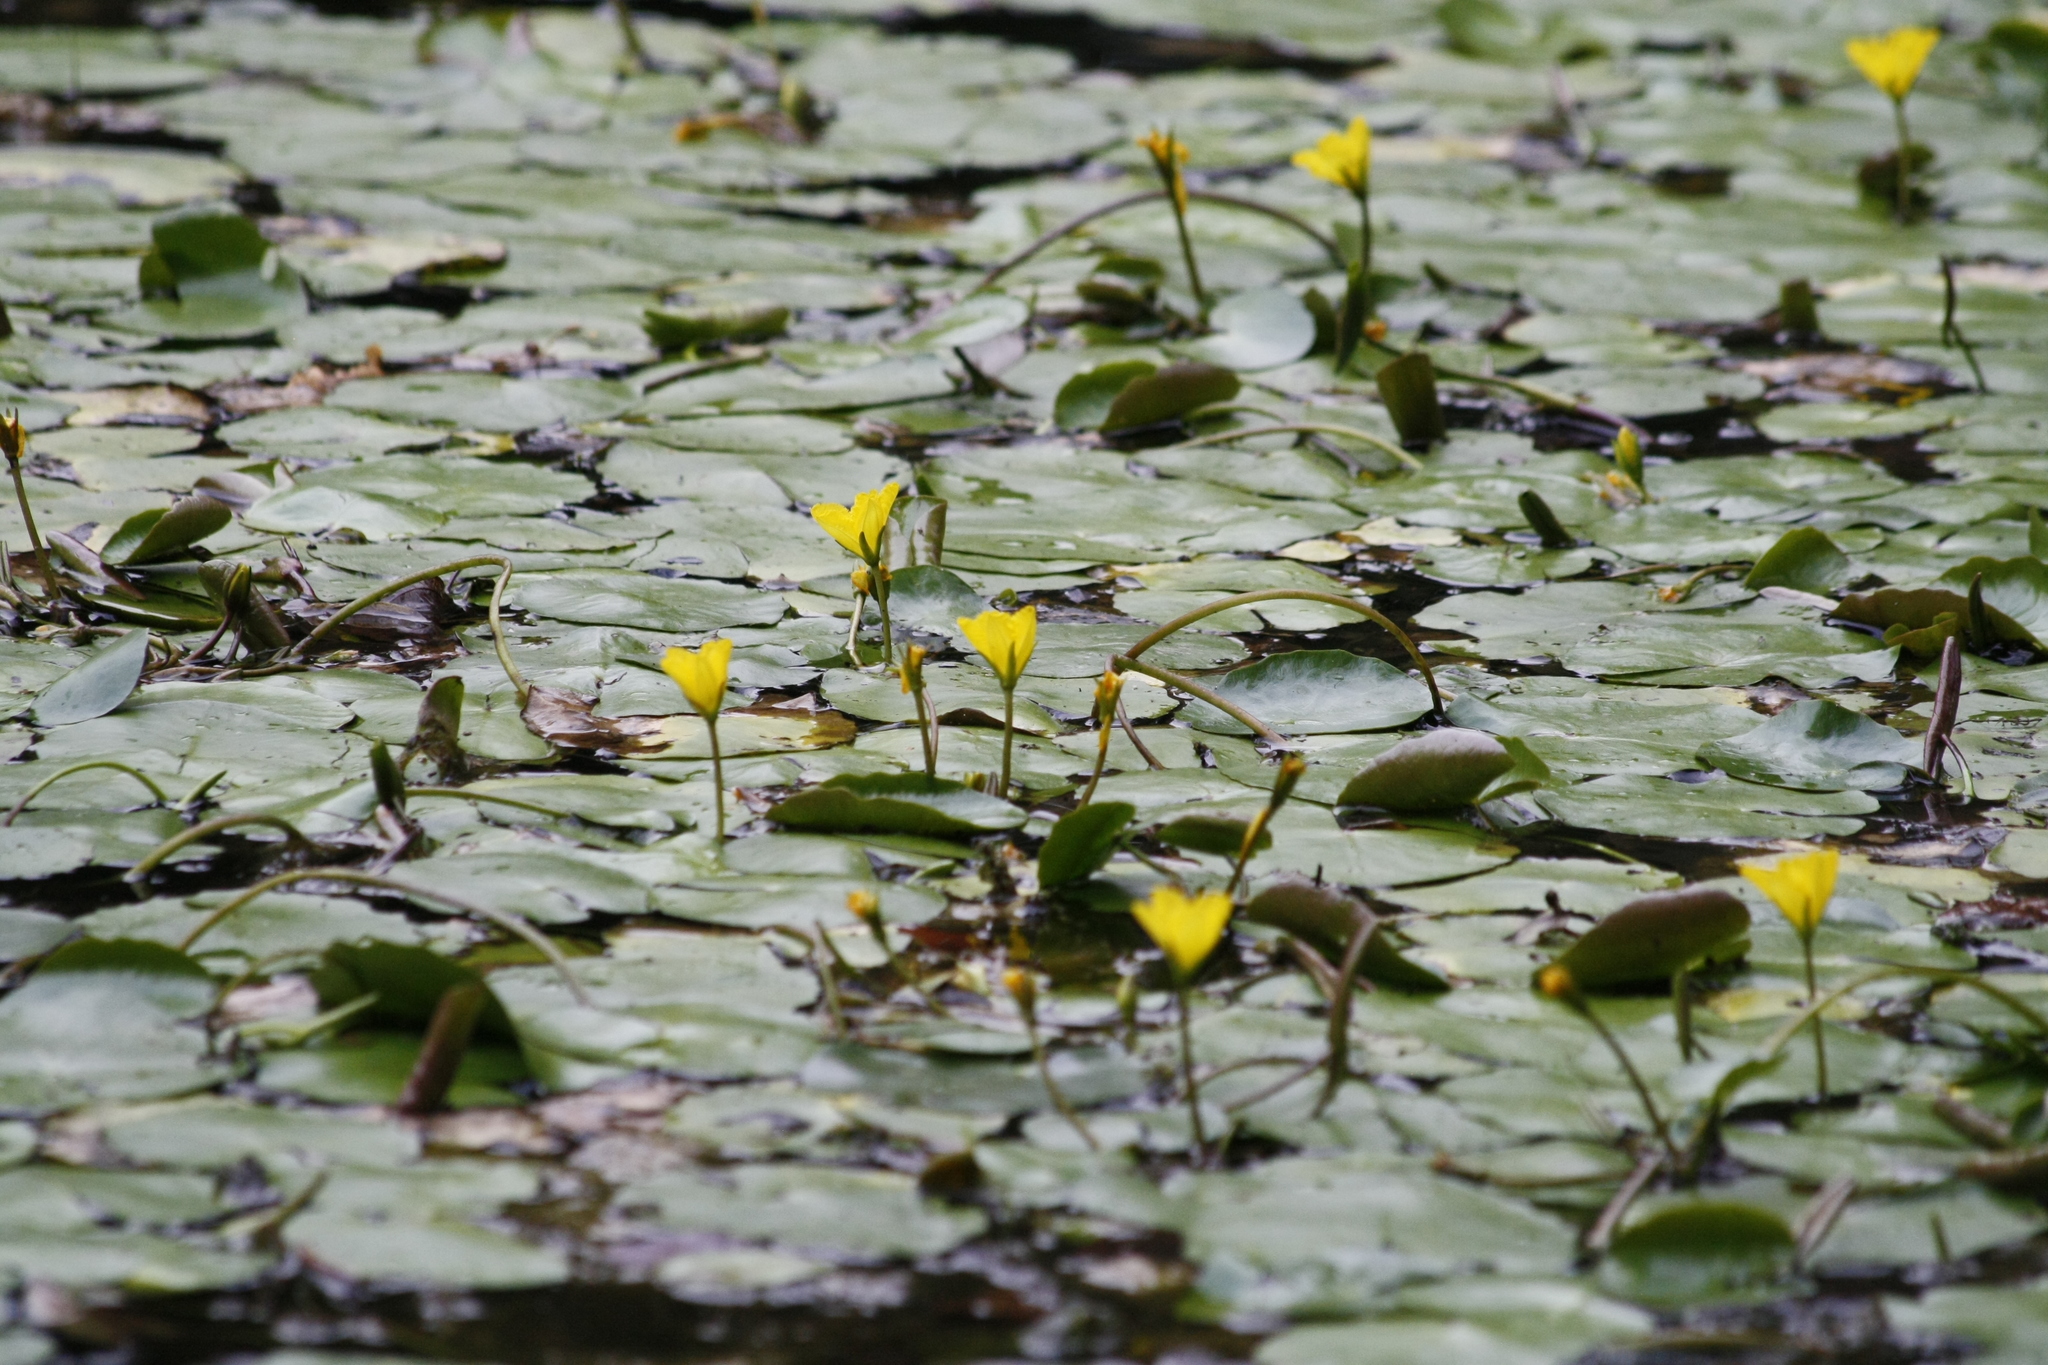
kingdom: Plantae
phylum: Tracheophyta
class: Magnoliopsida
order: Asterales
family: Menyanthaceae
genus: Nymphoides
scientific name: Nymphoides peltata
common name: Fringed water-lily
